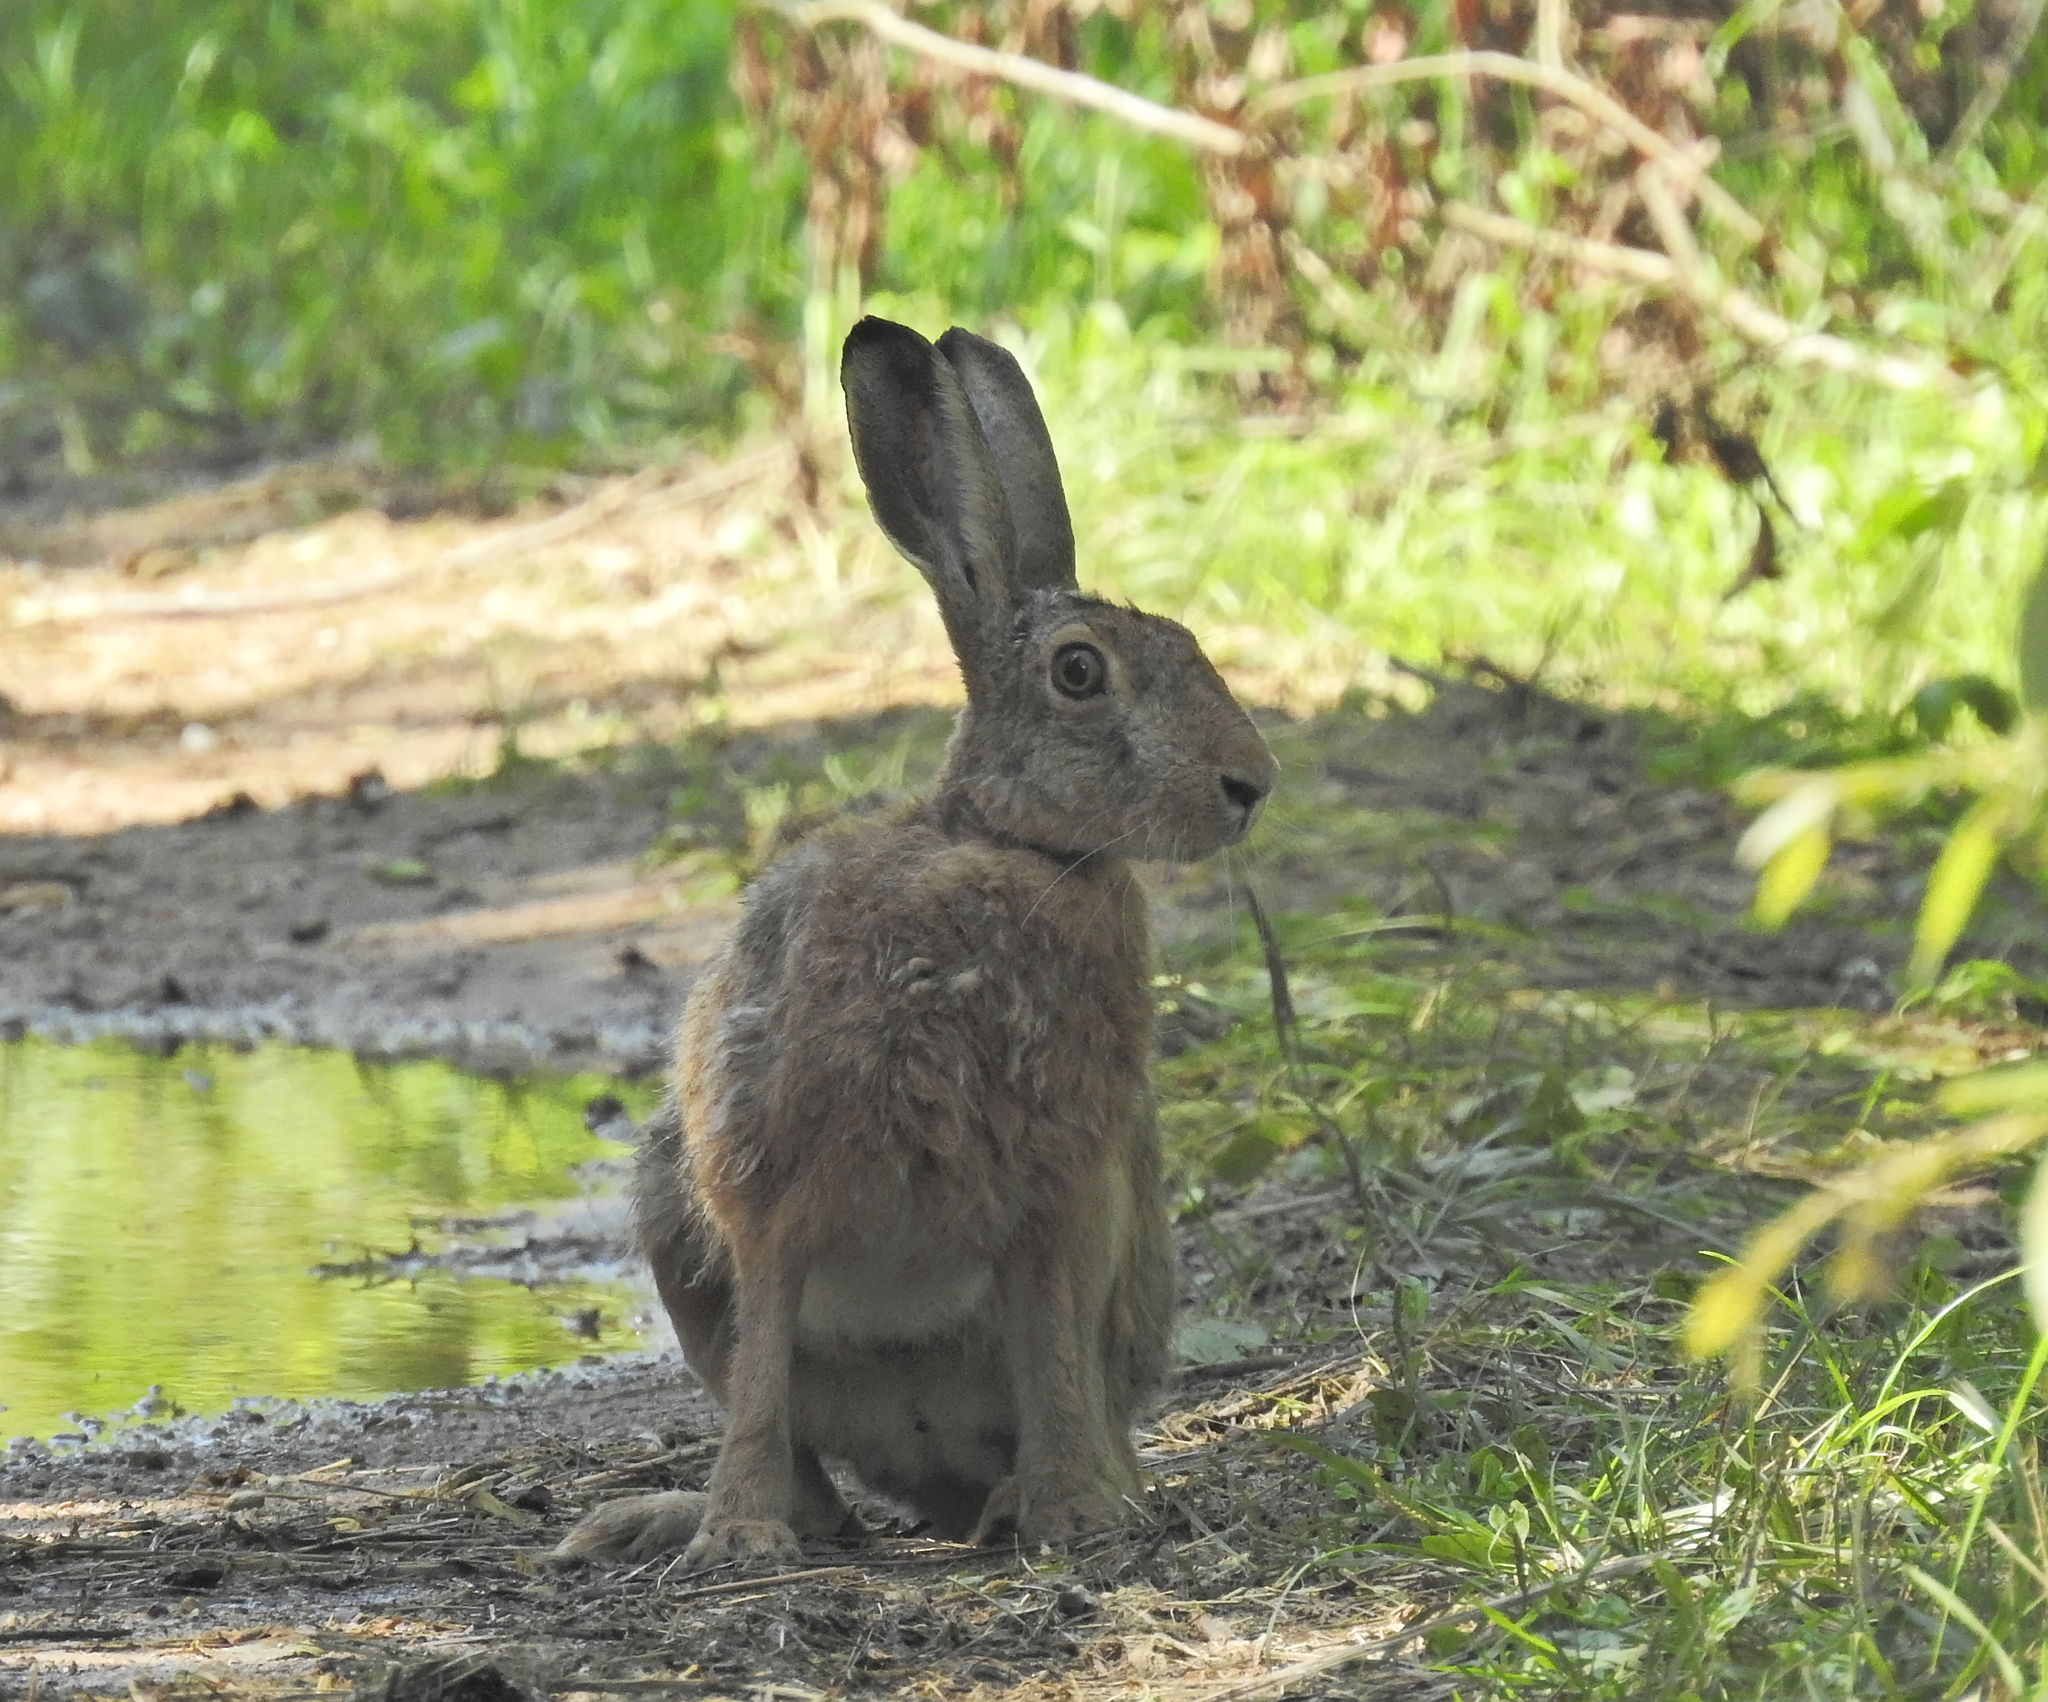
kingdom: Animalia
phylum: Chordata
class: Mammalia
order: Lagomorpha
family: Leporidae
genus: Lepus
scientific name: Lepus europaeus
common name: European hare
